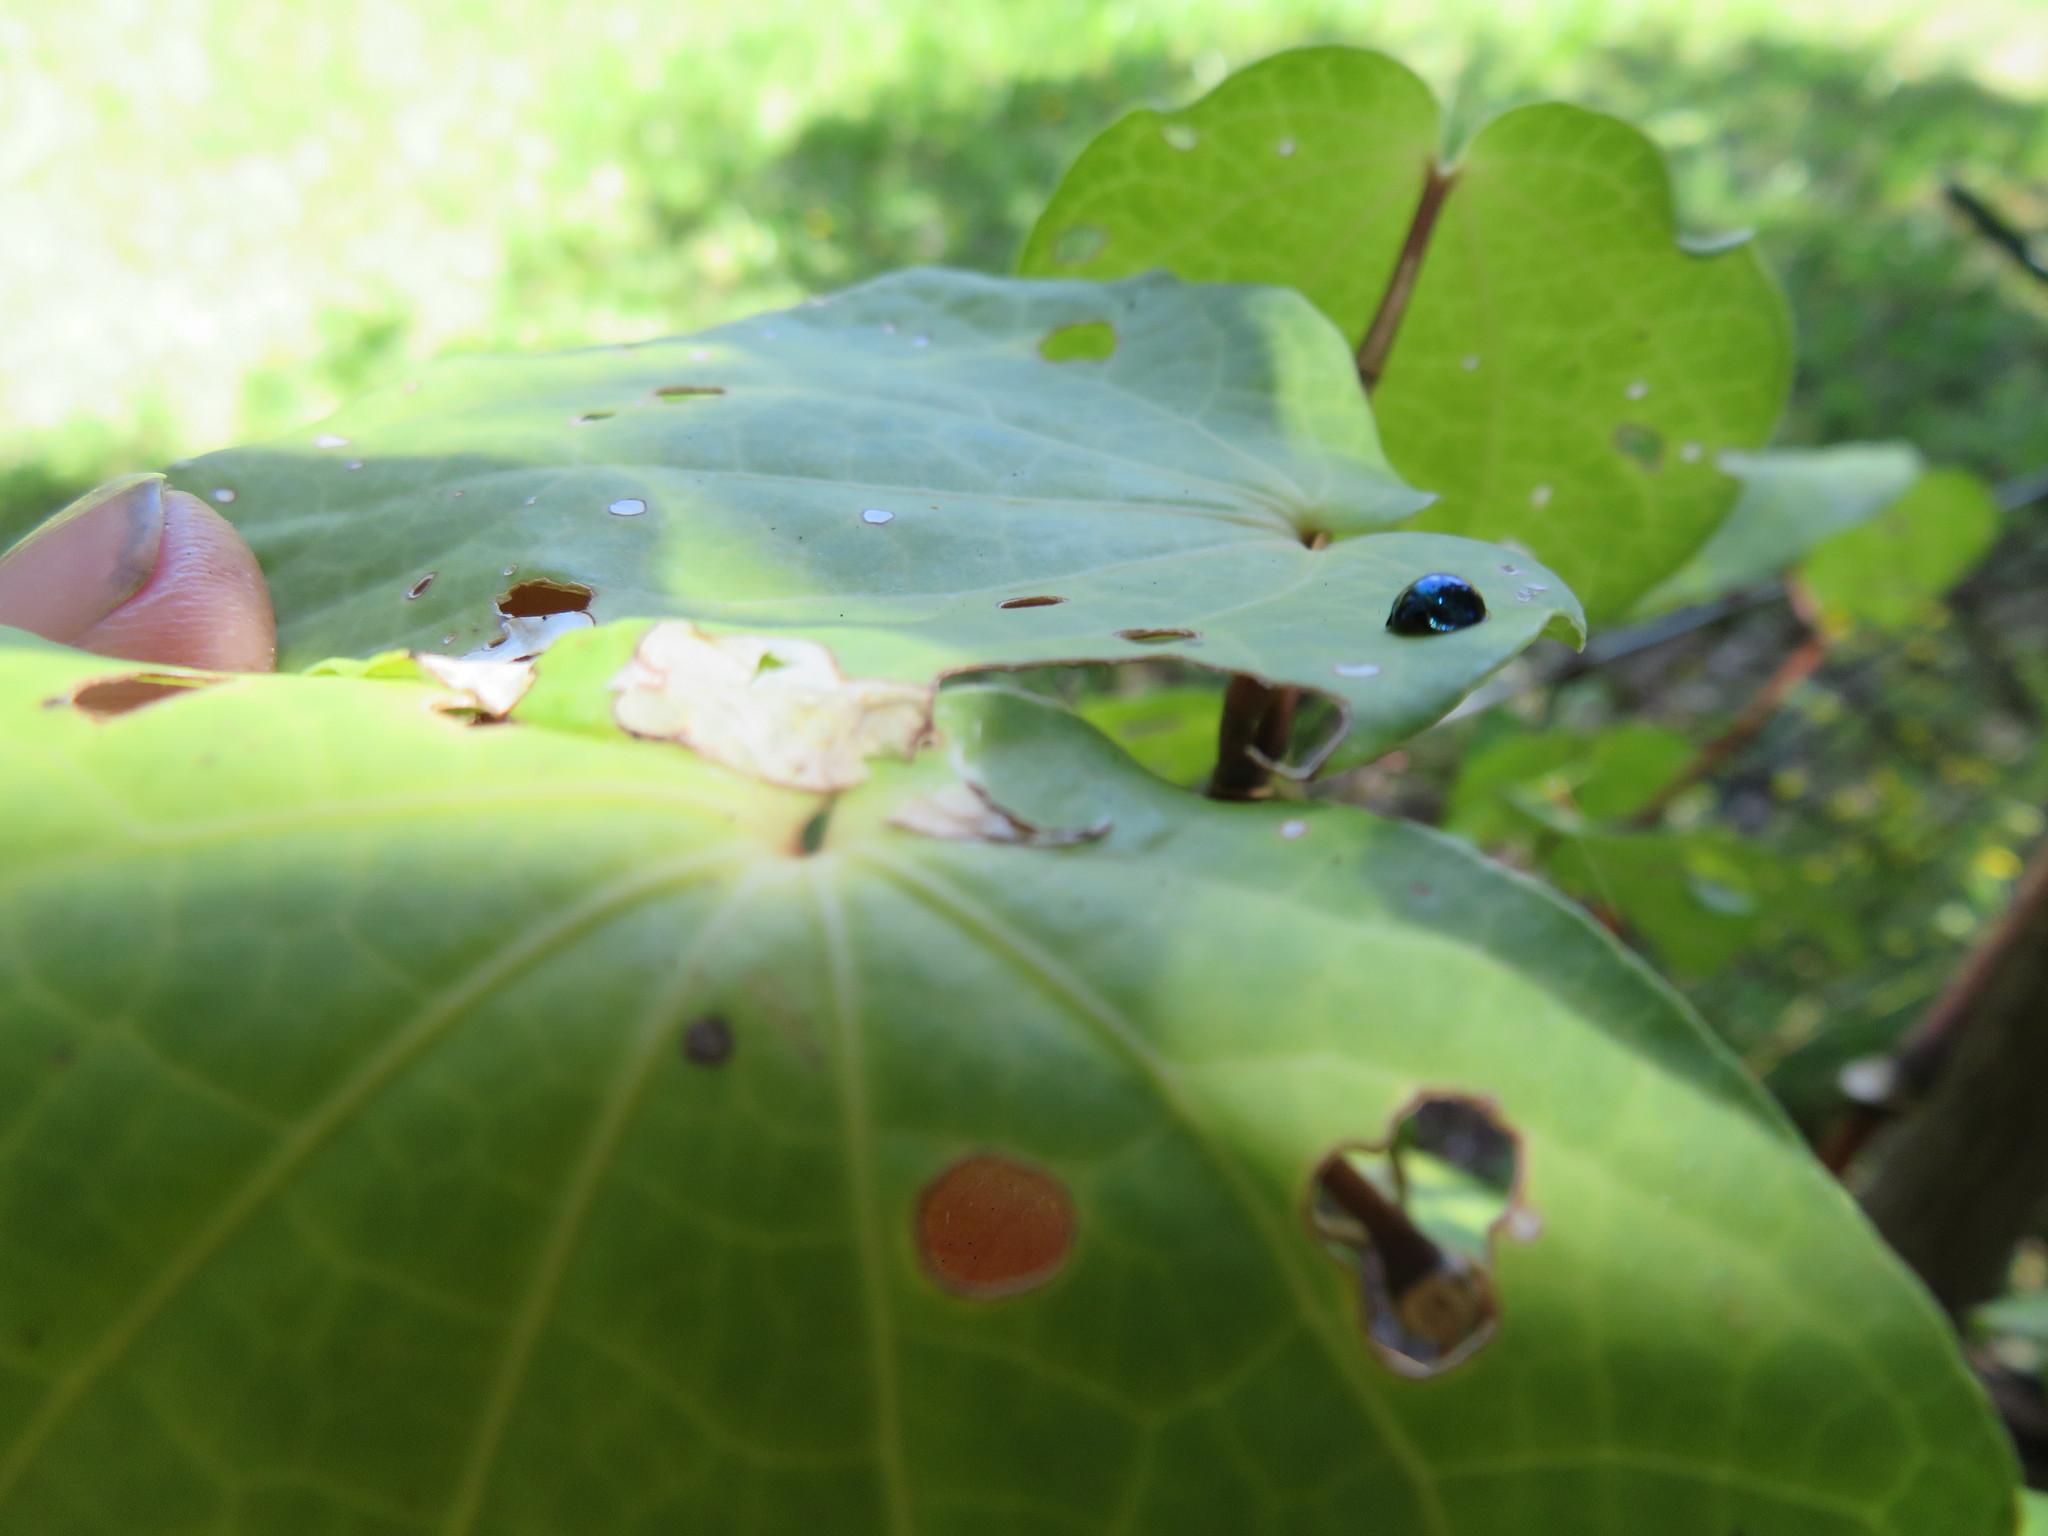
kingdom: Animalia
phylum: Arthropoda
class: Insecta
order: Coleoptera
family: Coccinellidae
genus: Halmus
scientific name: Halmus chalybeus
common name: Steel blue ladybird beetle
